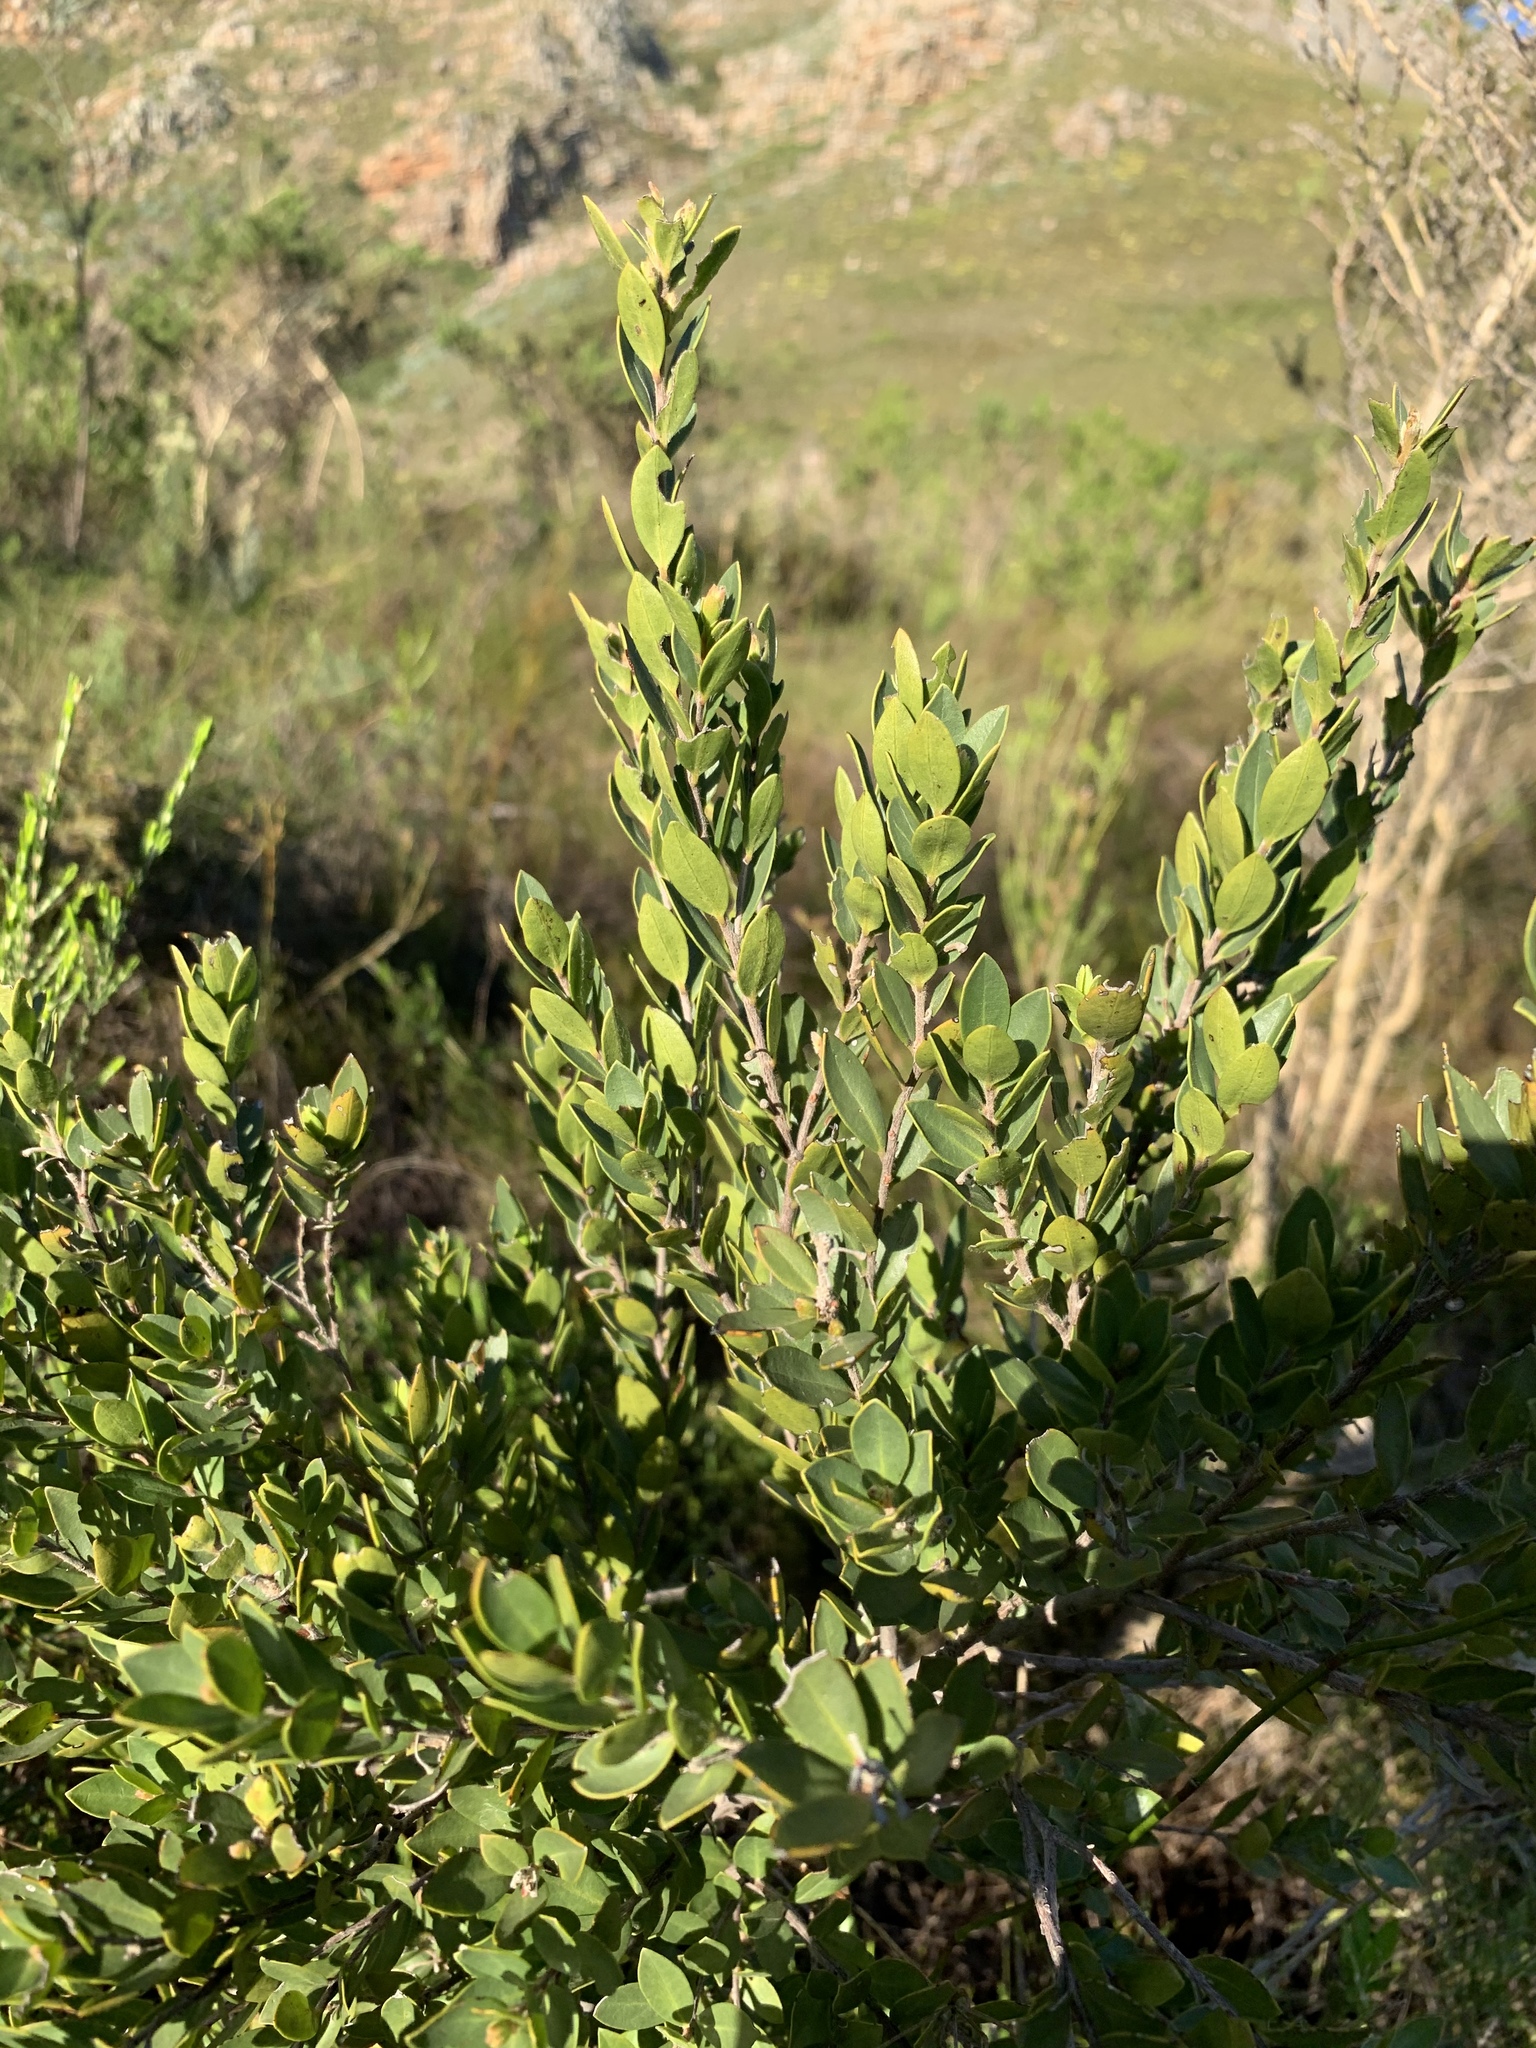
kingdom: Plantae
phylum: Tracheophyta
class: Magnoliopsida
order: Ericales
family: Ebenaceae
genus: Diospyros
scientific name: Diospyros glabra
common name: Fynbos star apple
